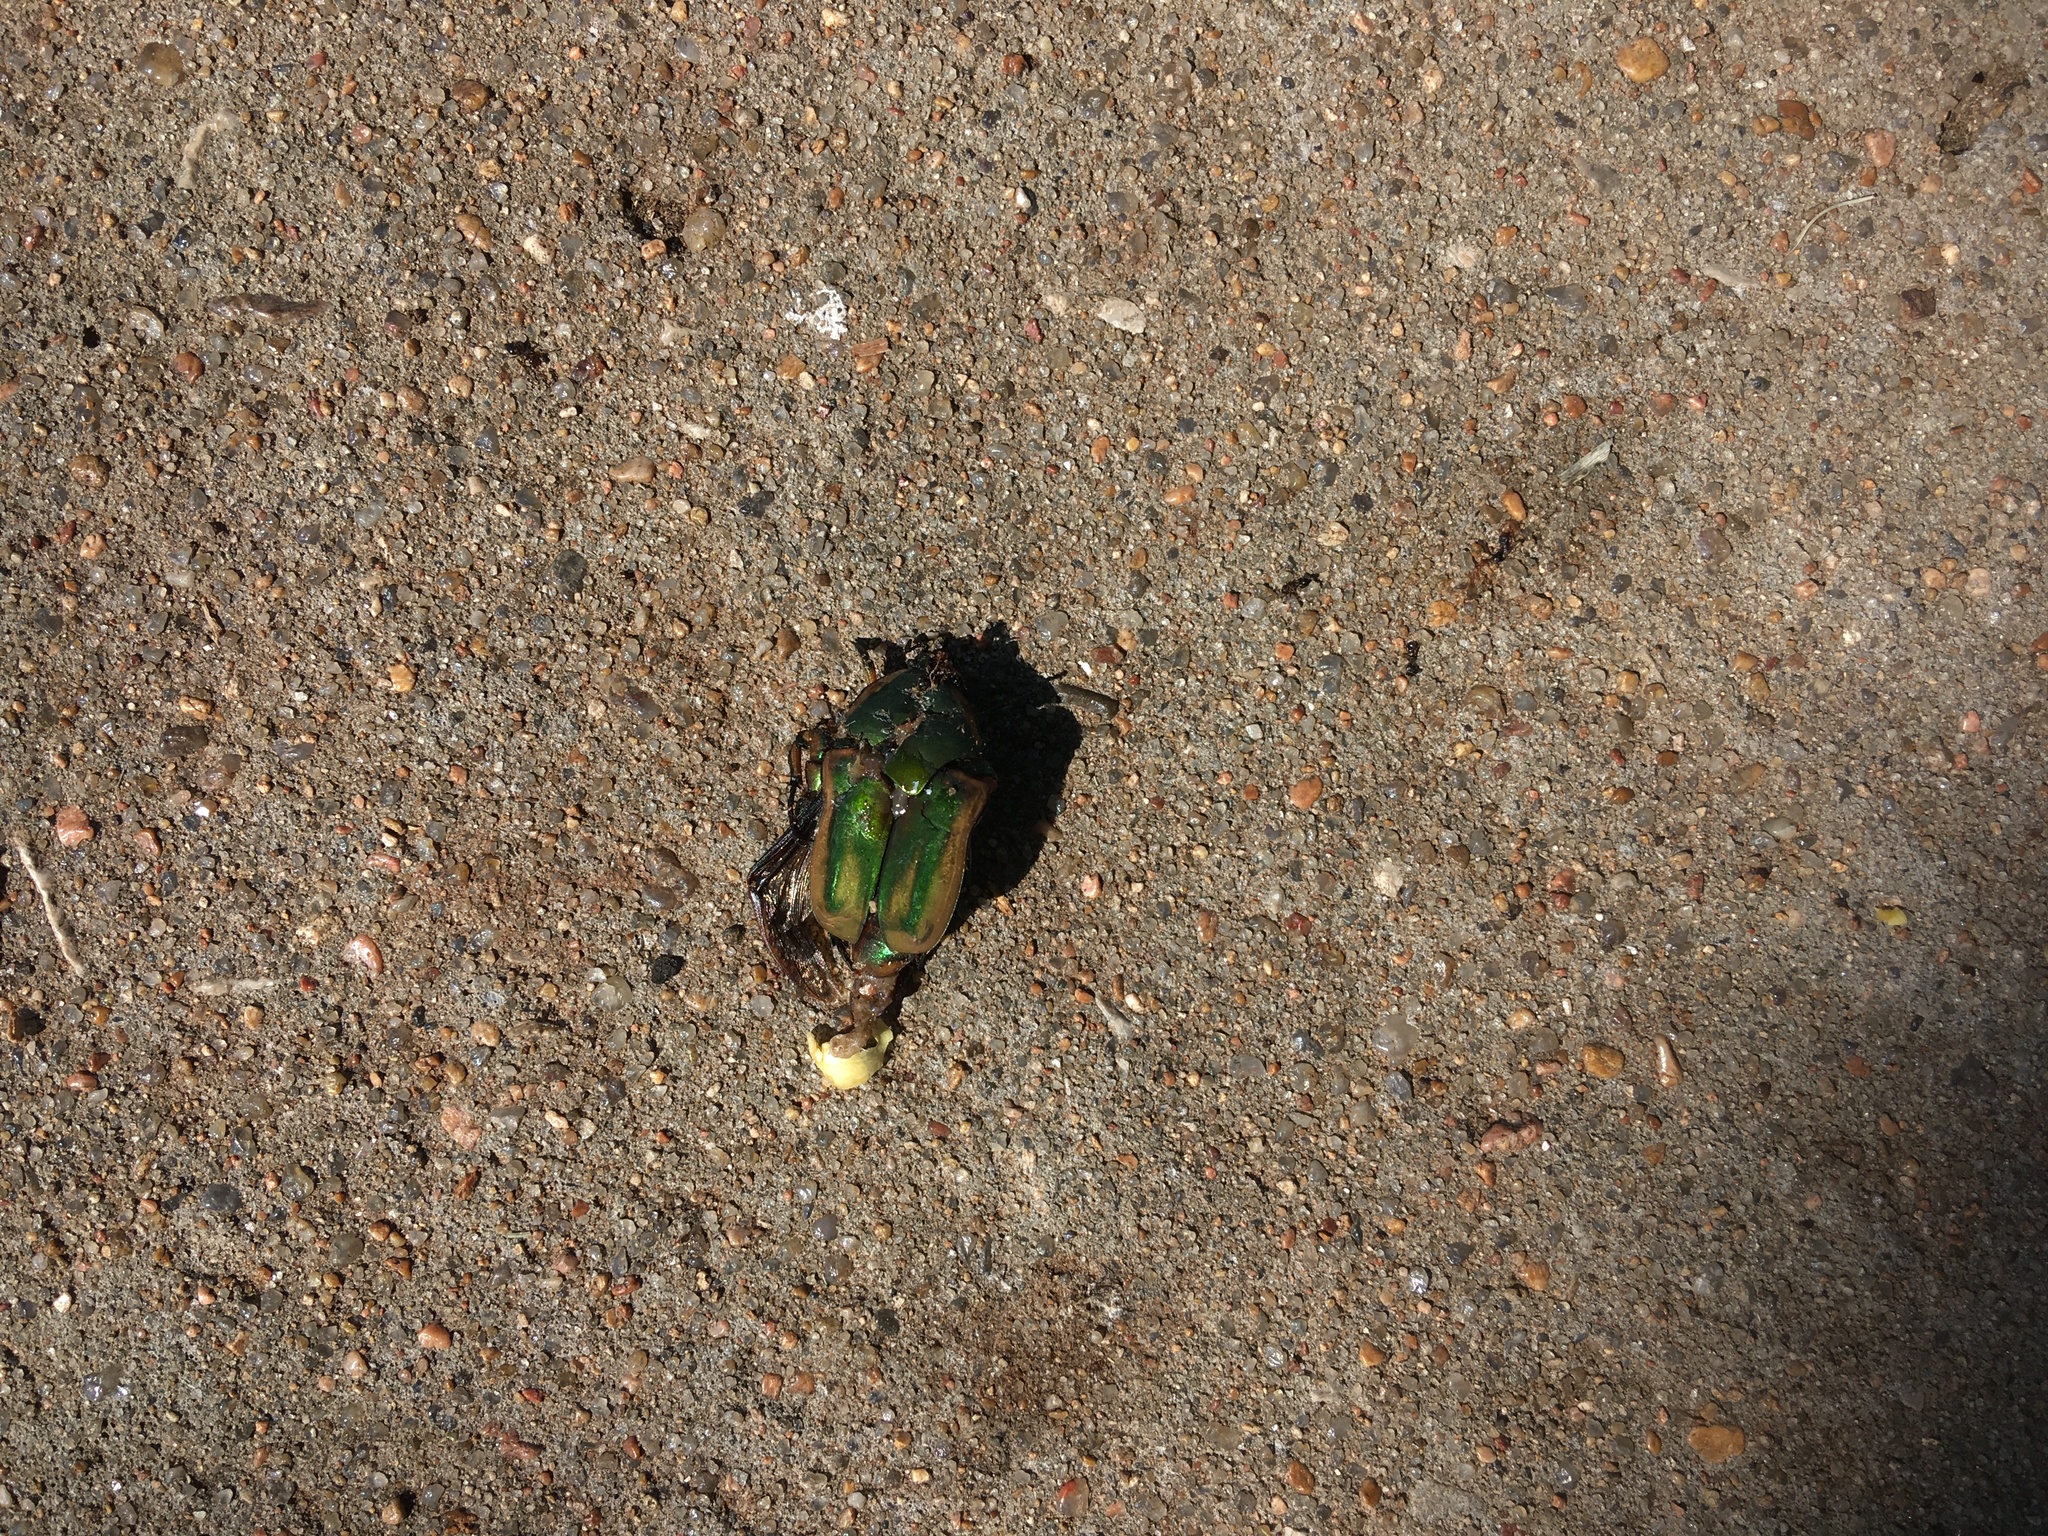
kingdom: Animalia
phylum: Arthropoda
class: Insecta
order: Coleoptera
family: Scarabaeidae
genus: Cotinis
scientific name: Cotinis nitida
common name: Common green june beetle
